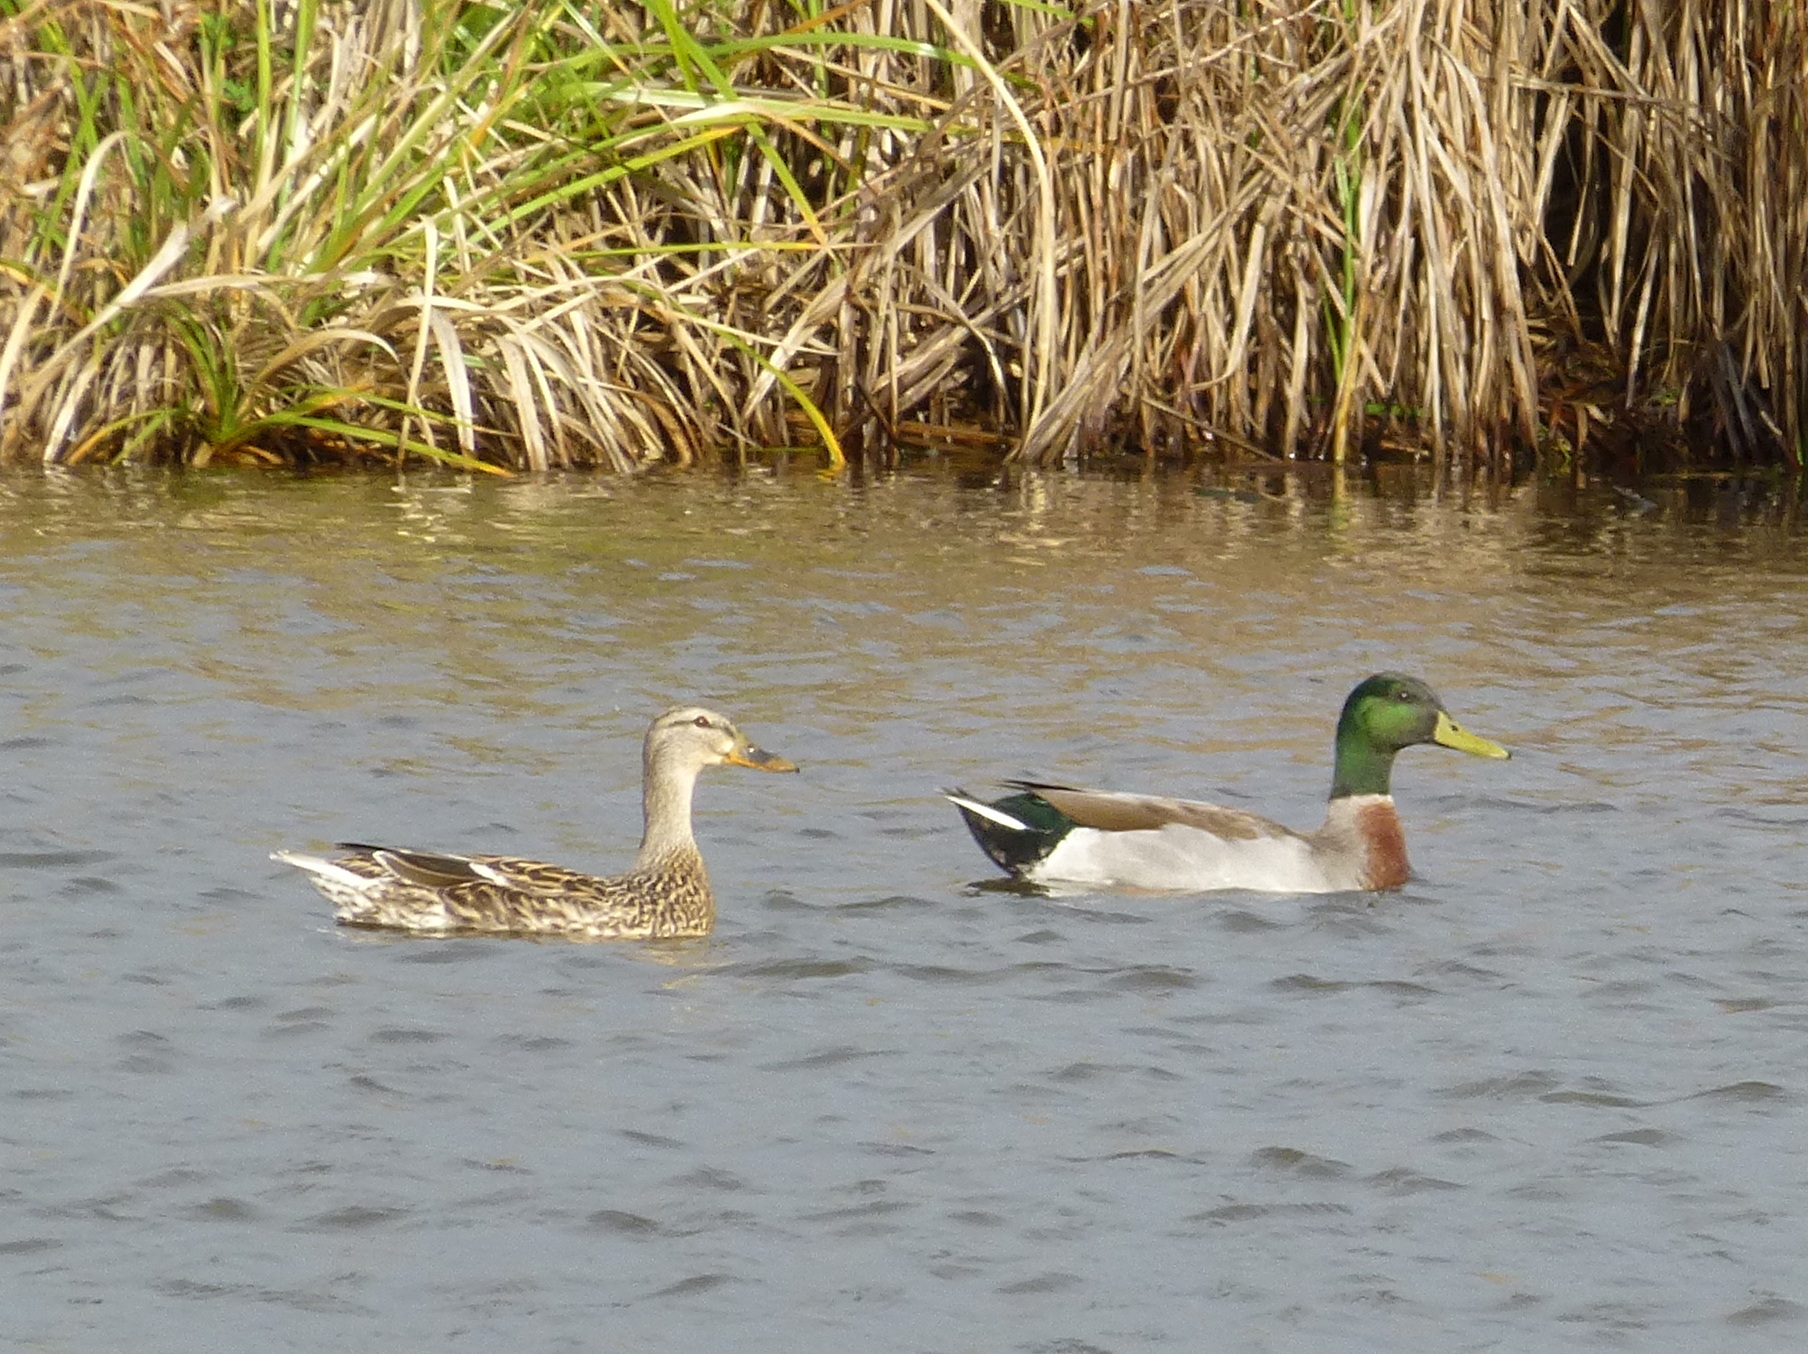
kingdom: Animalia
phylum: Chordata
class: Aves
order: Anseriformes
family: Anatidae
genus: Anas
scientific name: Anas
